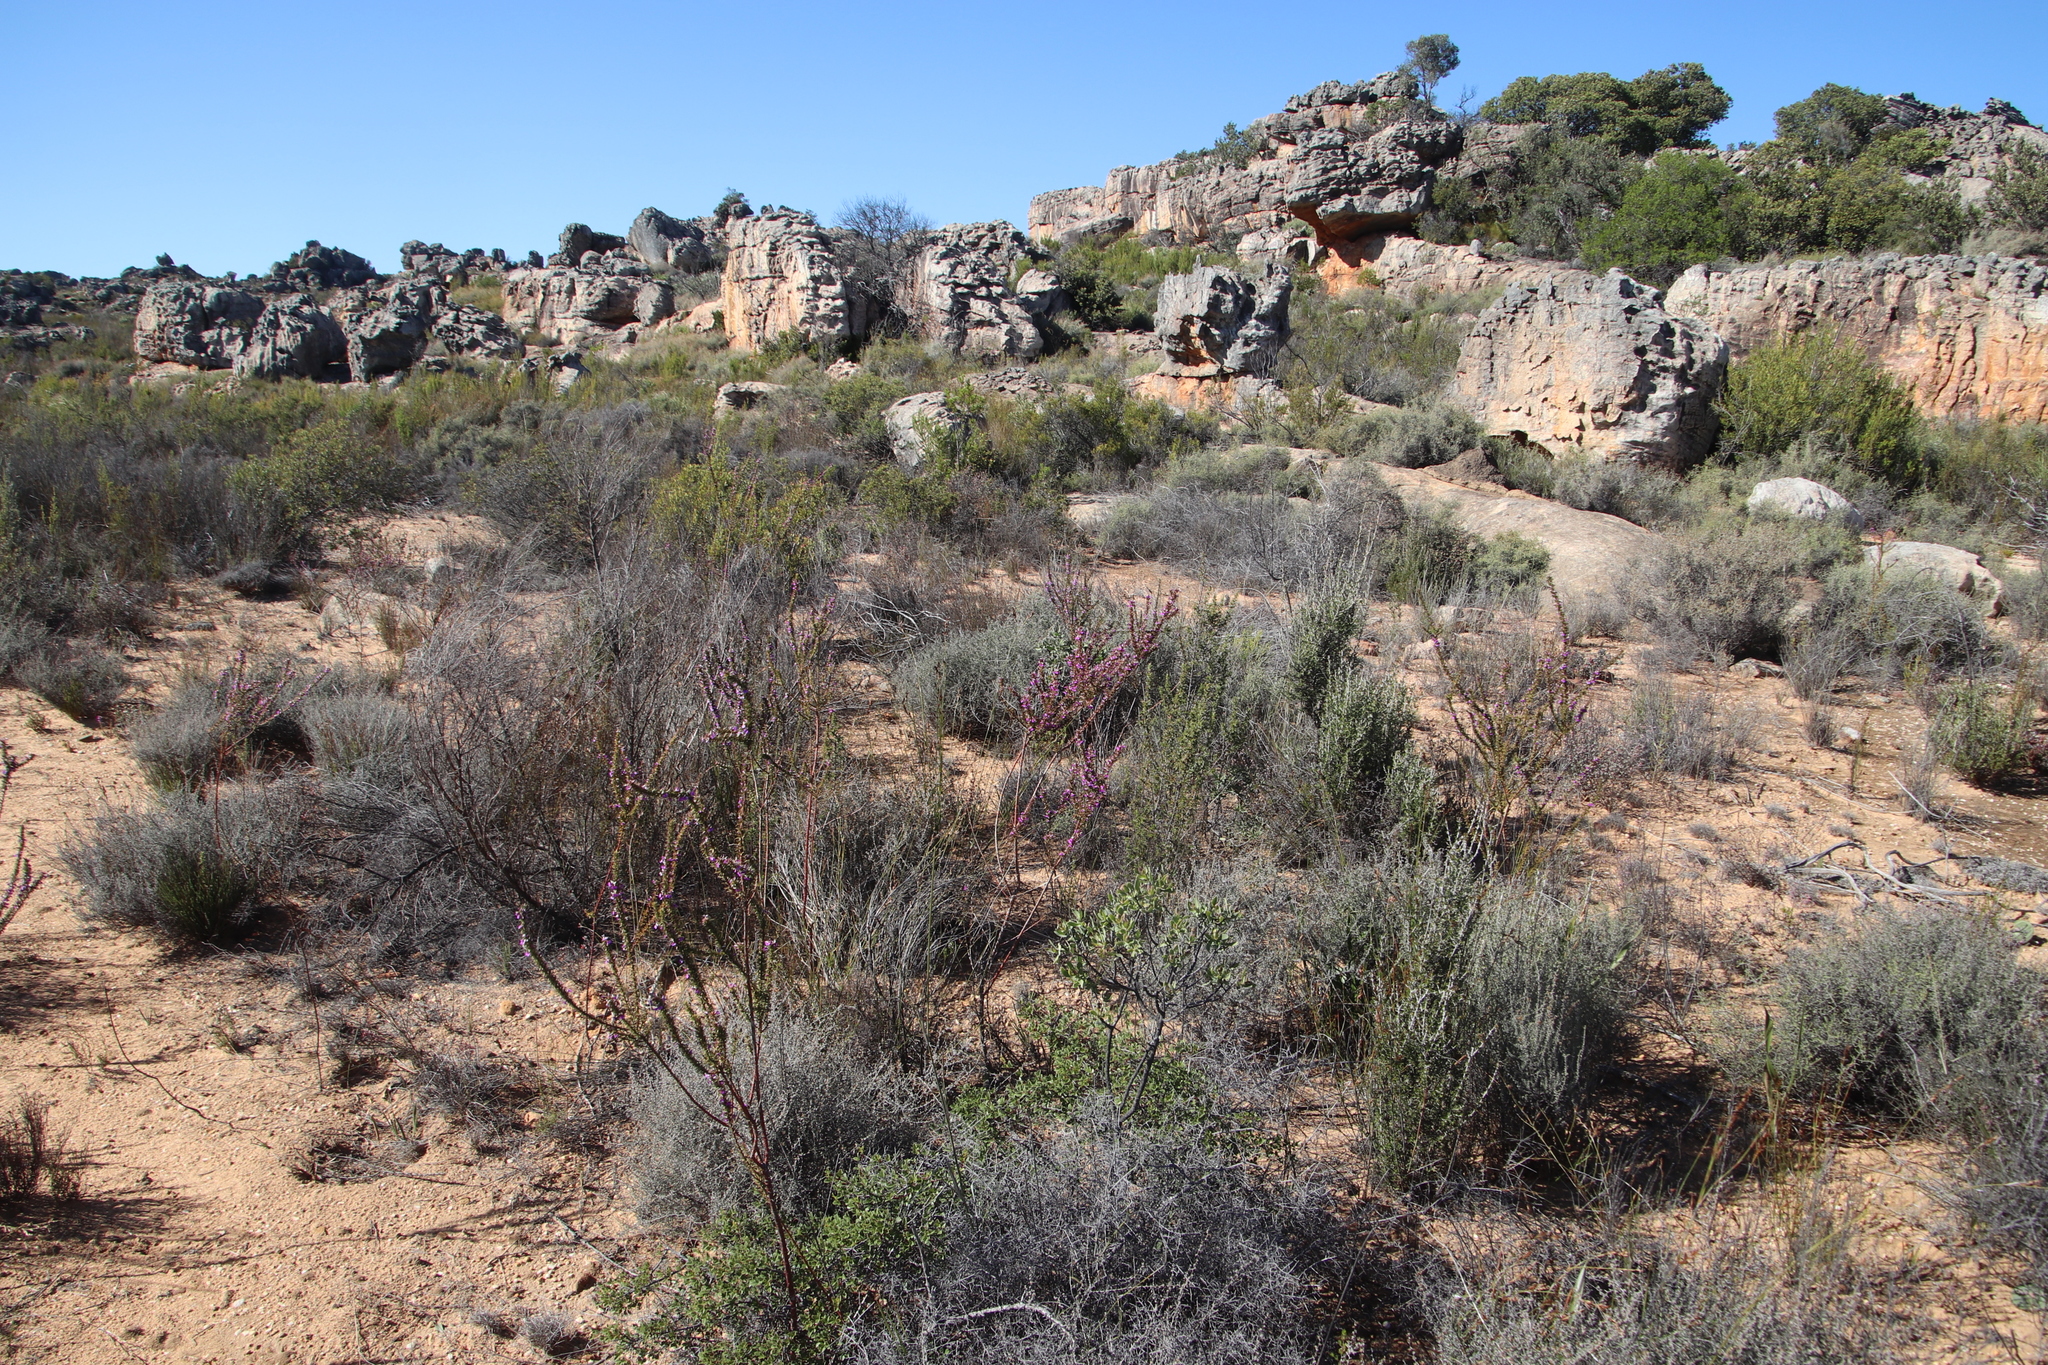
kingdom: Plantae
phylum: Tracheophyta
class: Magnoliopsida
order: Fabales
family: Polygalaceae
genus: Muraltia
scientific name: Muraltia heisteria
